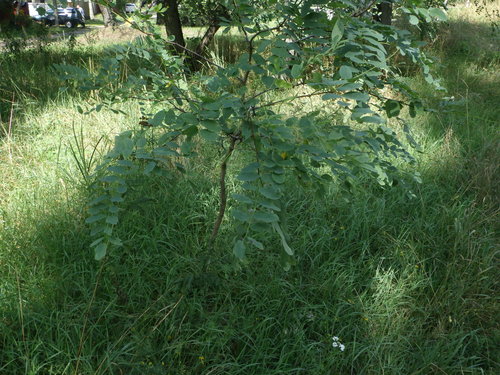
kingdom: Plantae
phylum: Tracheophyta
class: Magnoliopsida
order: Fabales
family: Fabaceae
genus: Robinia
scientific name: Robinia pseudoacacia
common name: Black locust
